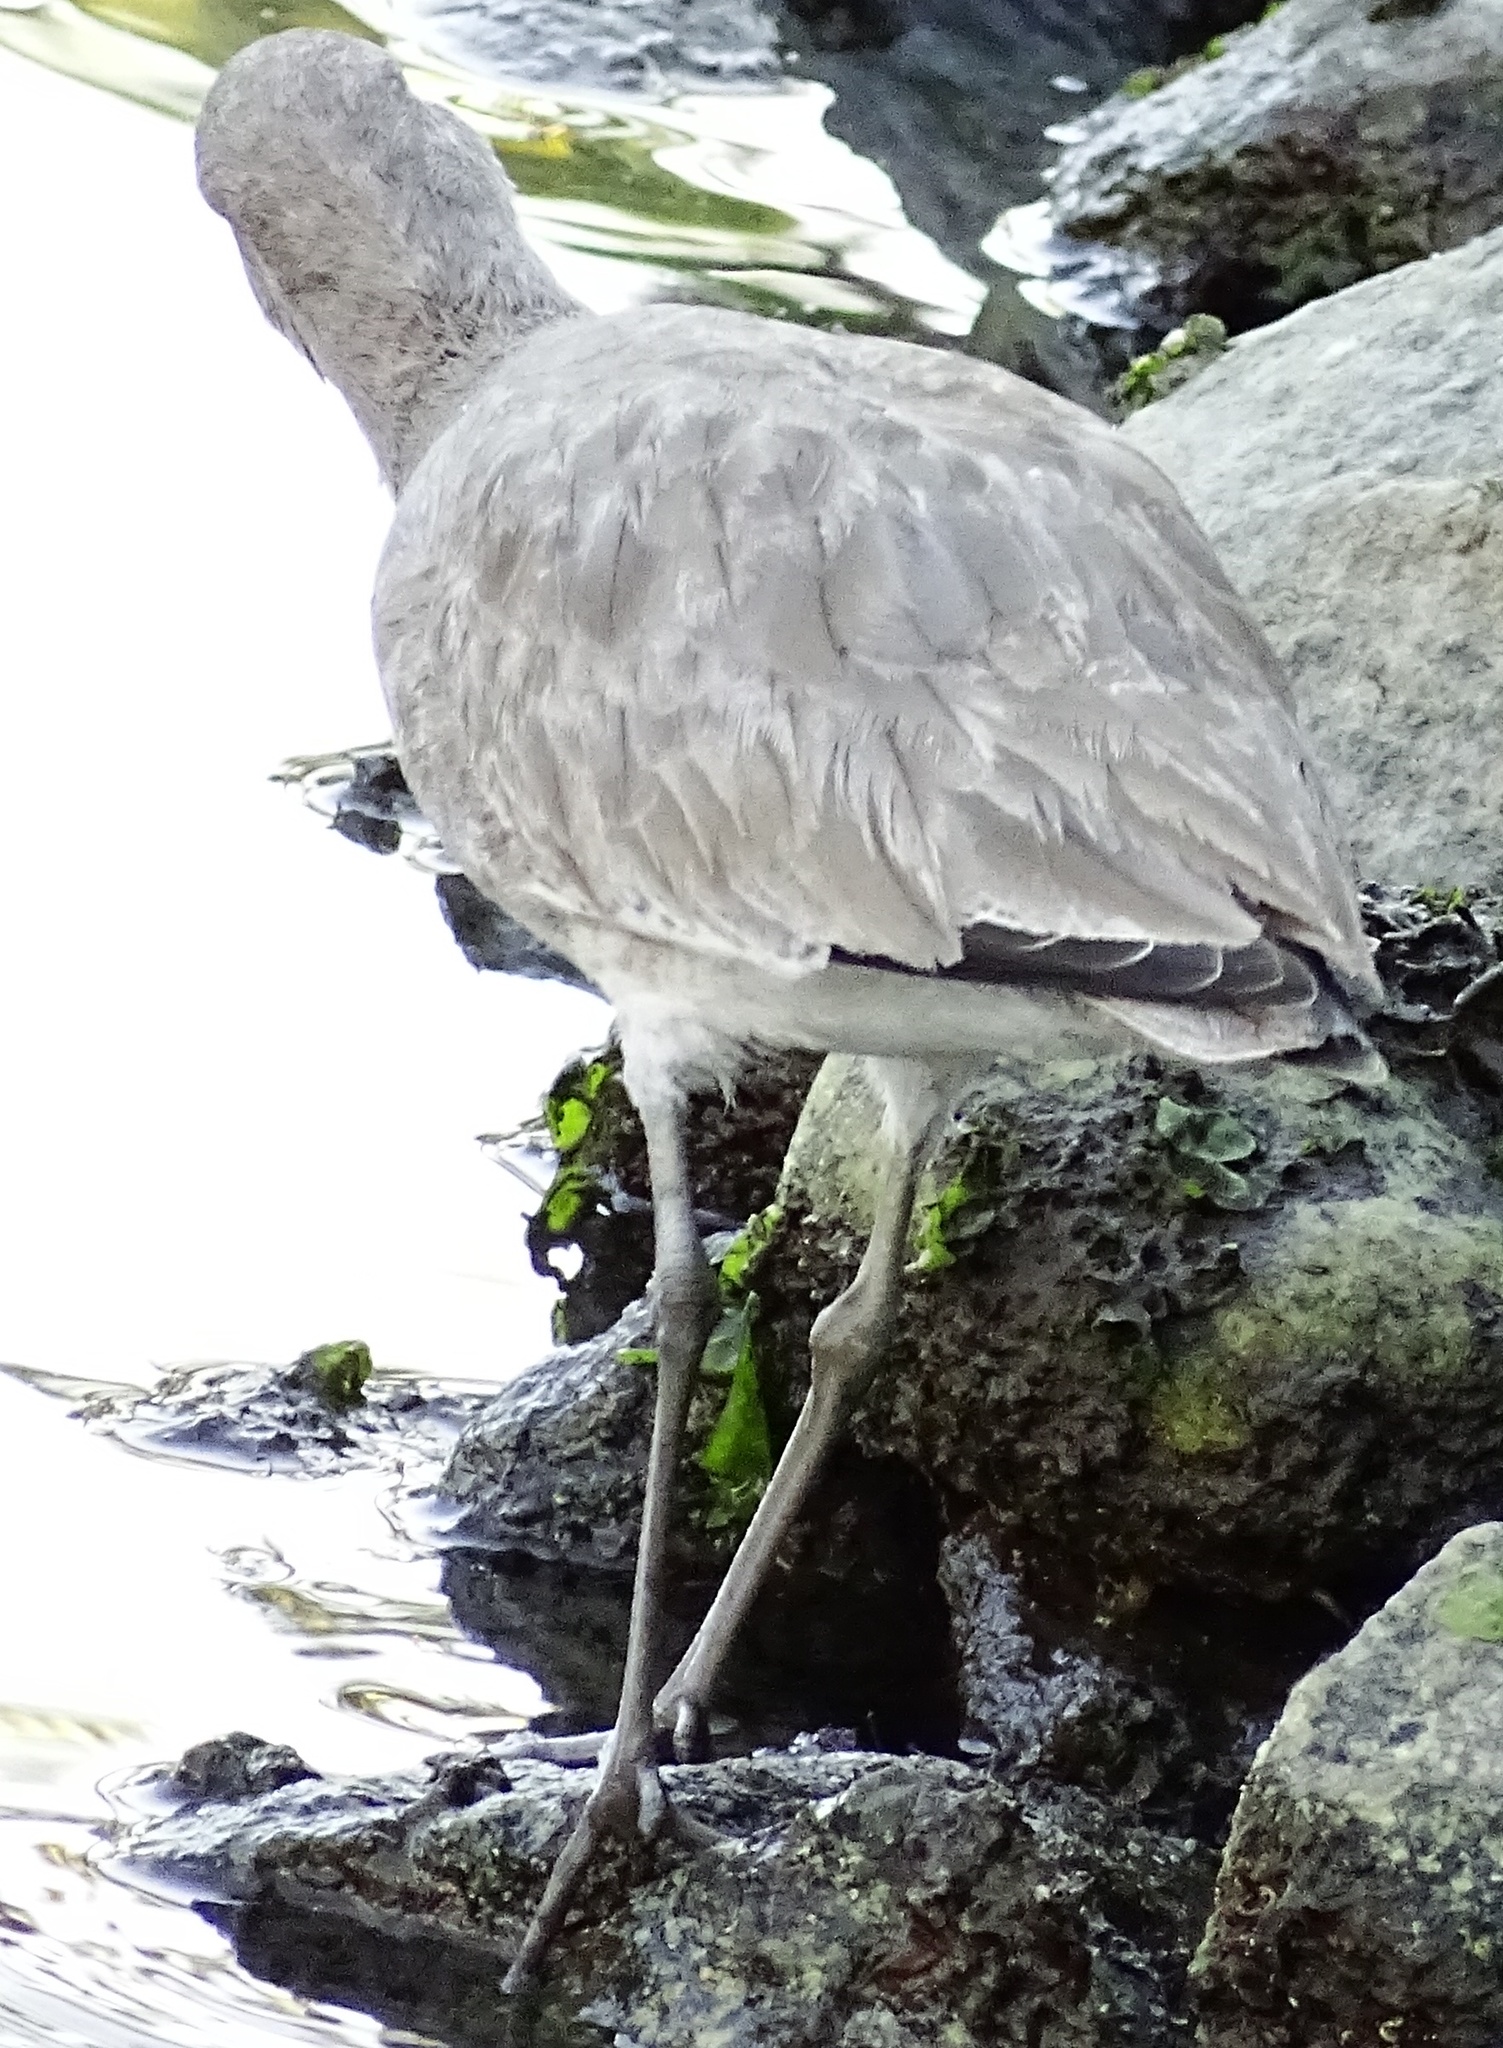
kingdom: Animalia
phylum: Chordata
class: Aves
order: Charadriiformes
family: Scolopacidae
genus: Tringa
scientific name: Tringa semipalmata
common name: Willet
